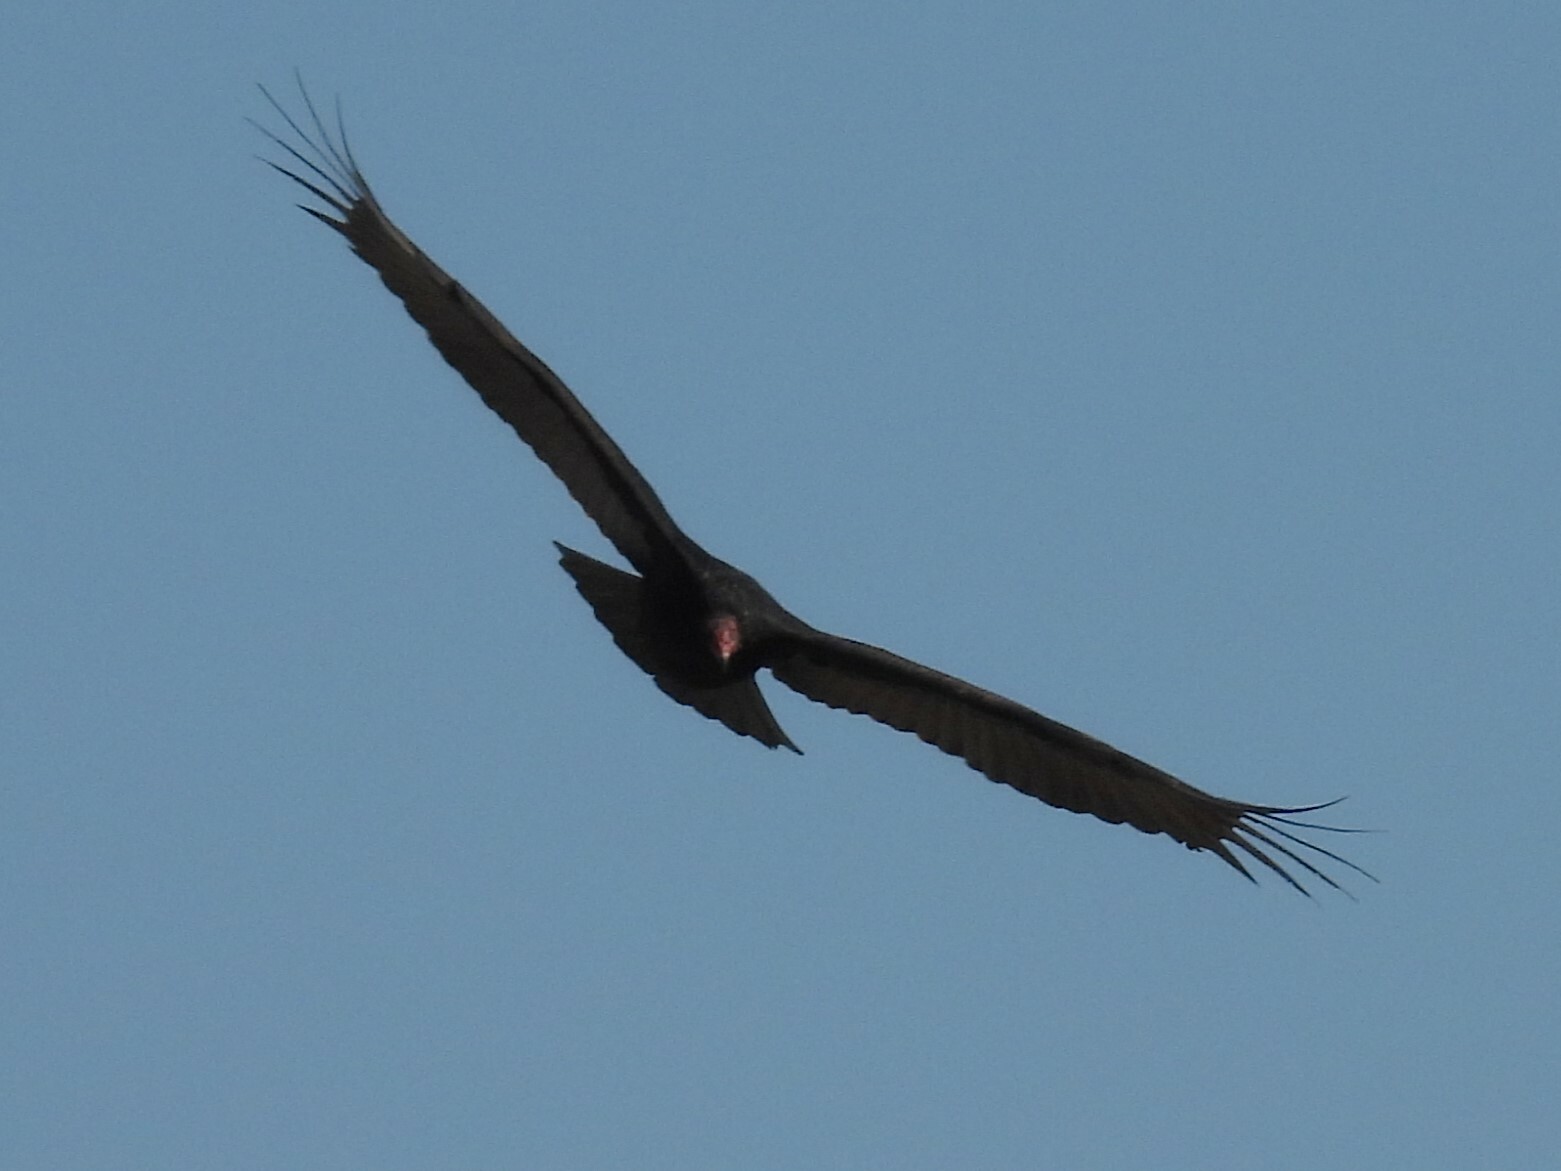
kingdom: Animalia
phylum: Chordata
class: Aves
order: Accipitriformes
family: Cathartidae
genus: Cathartes
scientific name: Cathartes aura
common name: Turkey vulture
